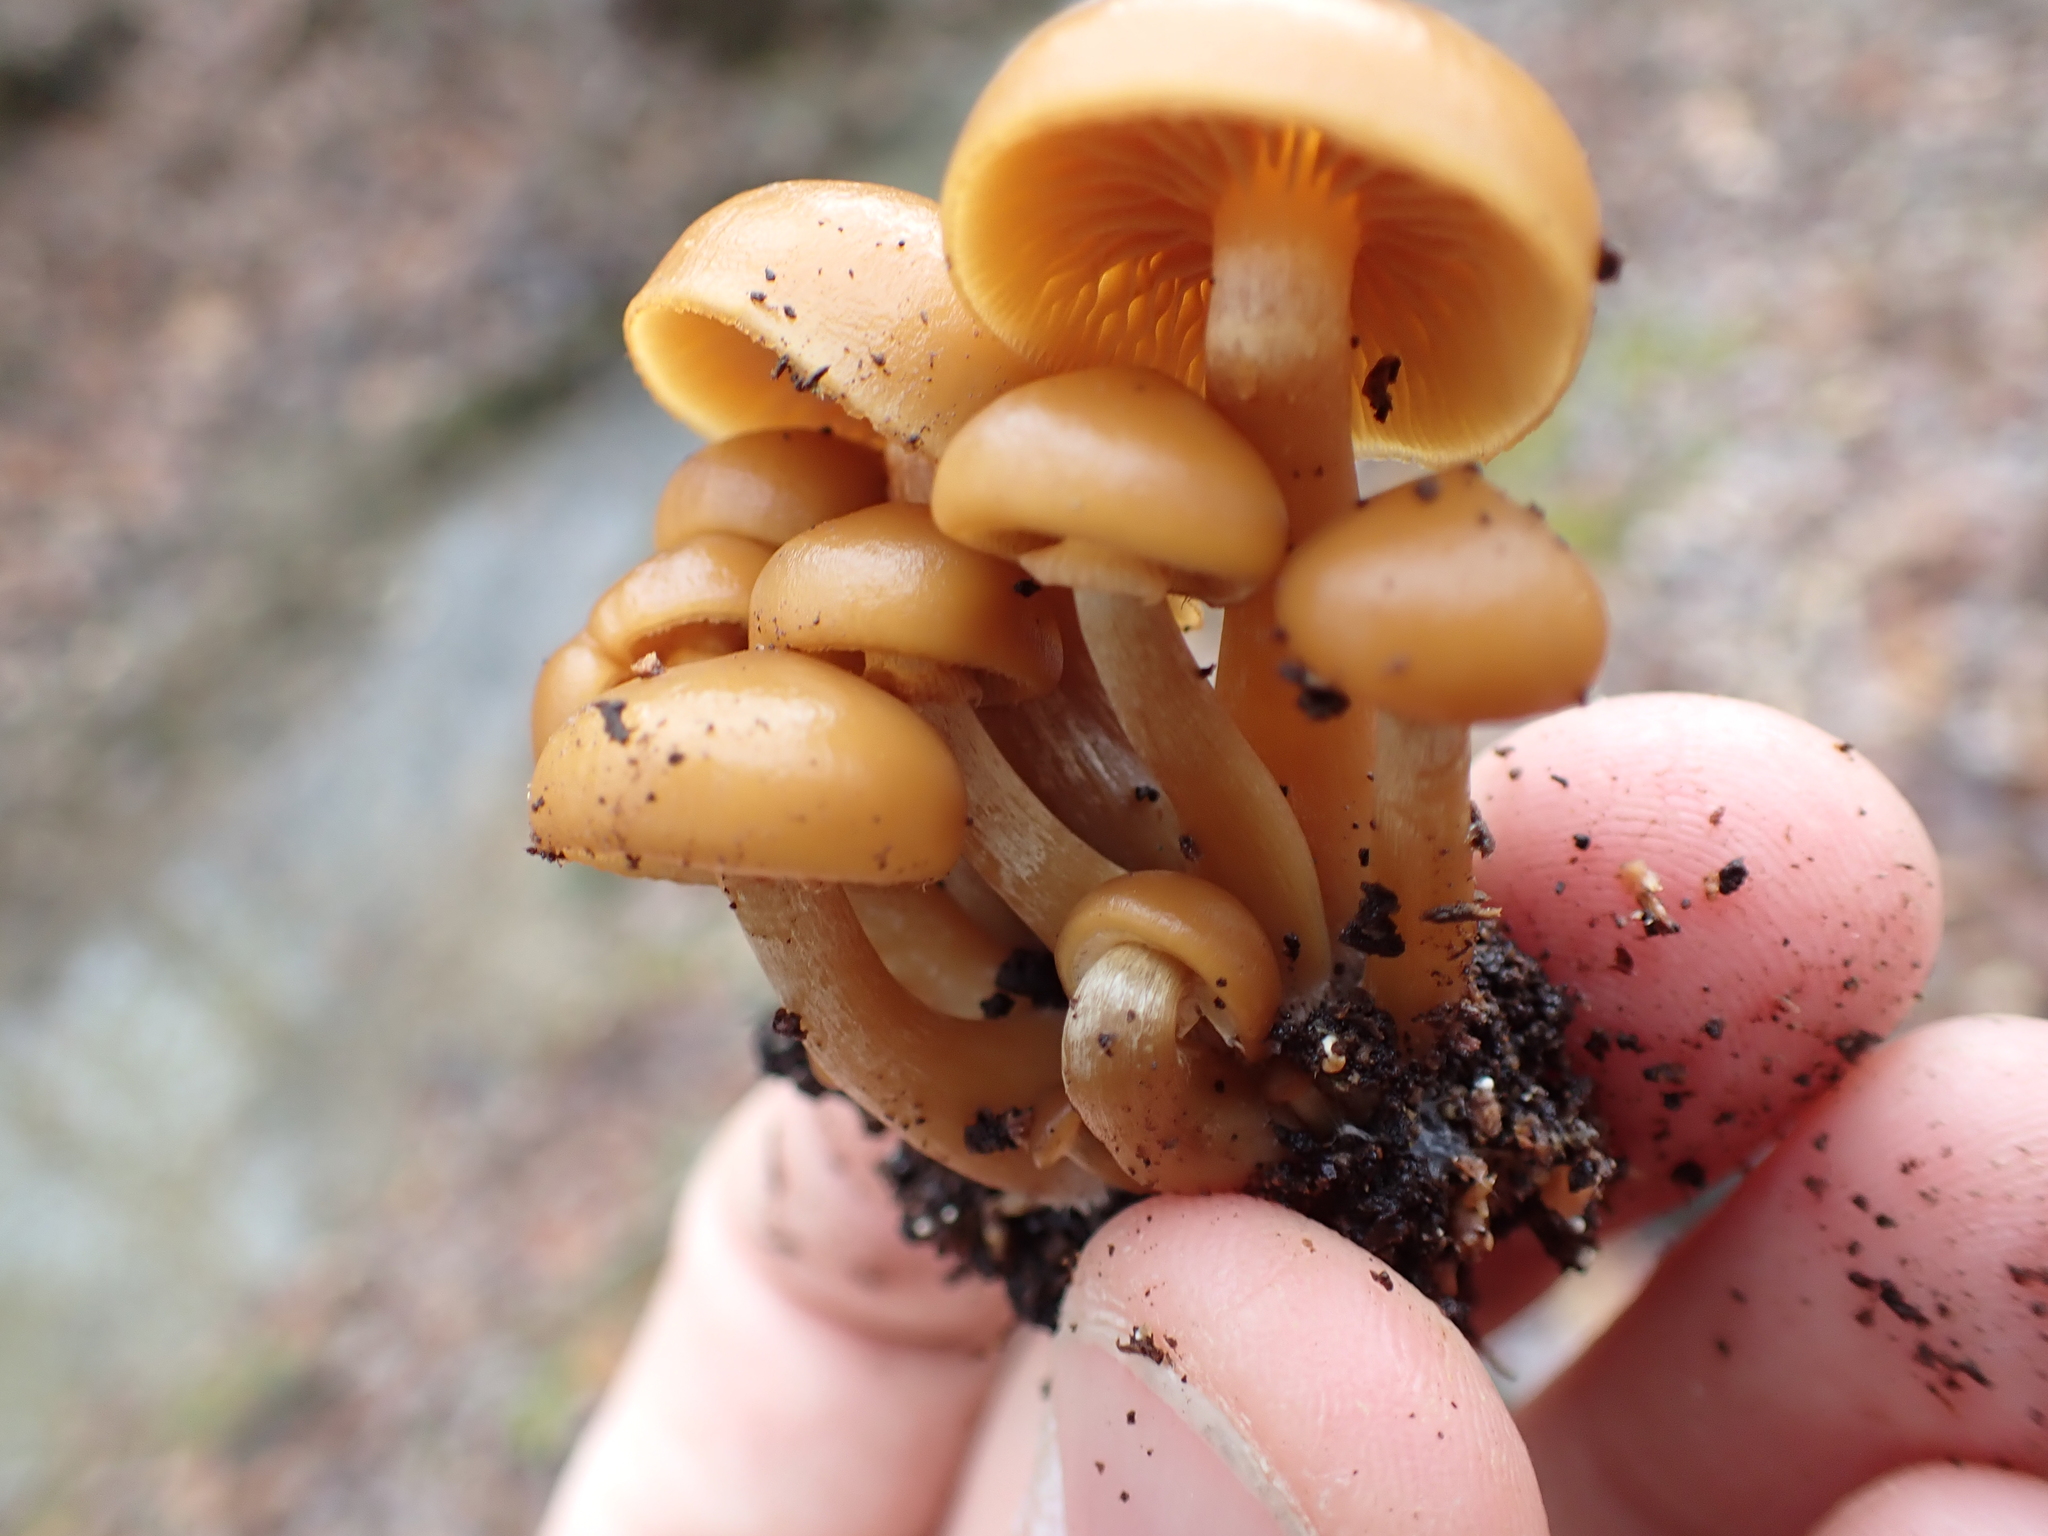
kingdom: Fungi
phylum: Basidiomycota
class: Agaricomycetes
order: Agaricales
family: Hymenogastraceae
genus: Galerina
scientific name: Galerina marginata
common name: Funeral bell
